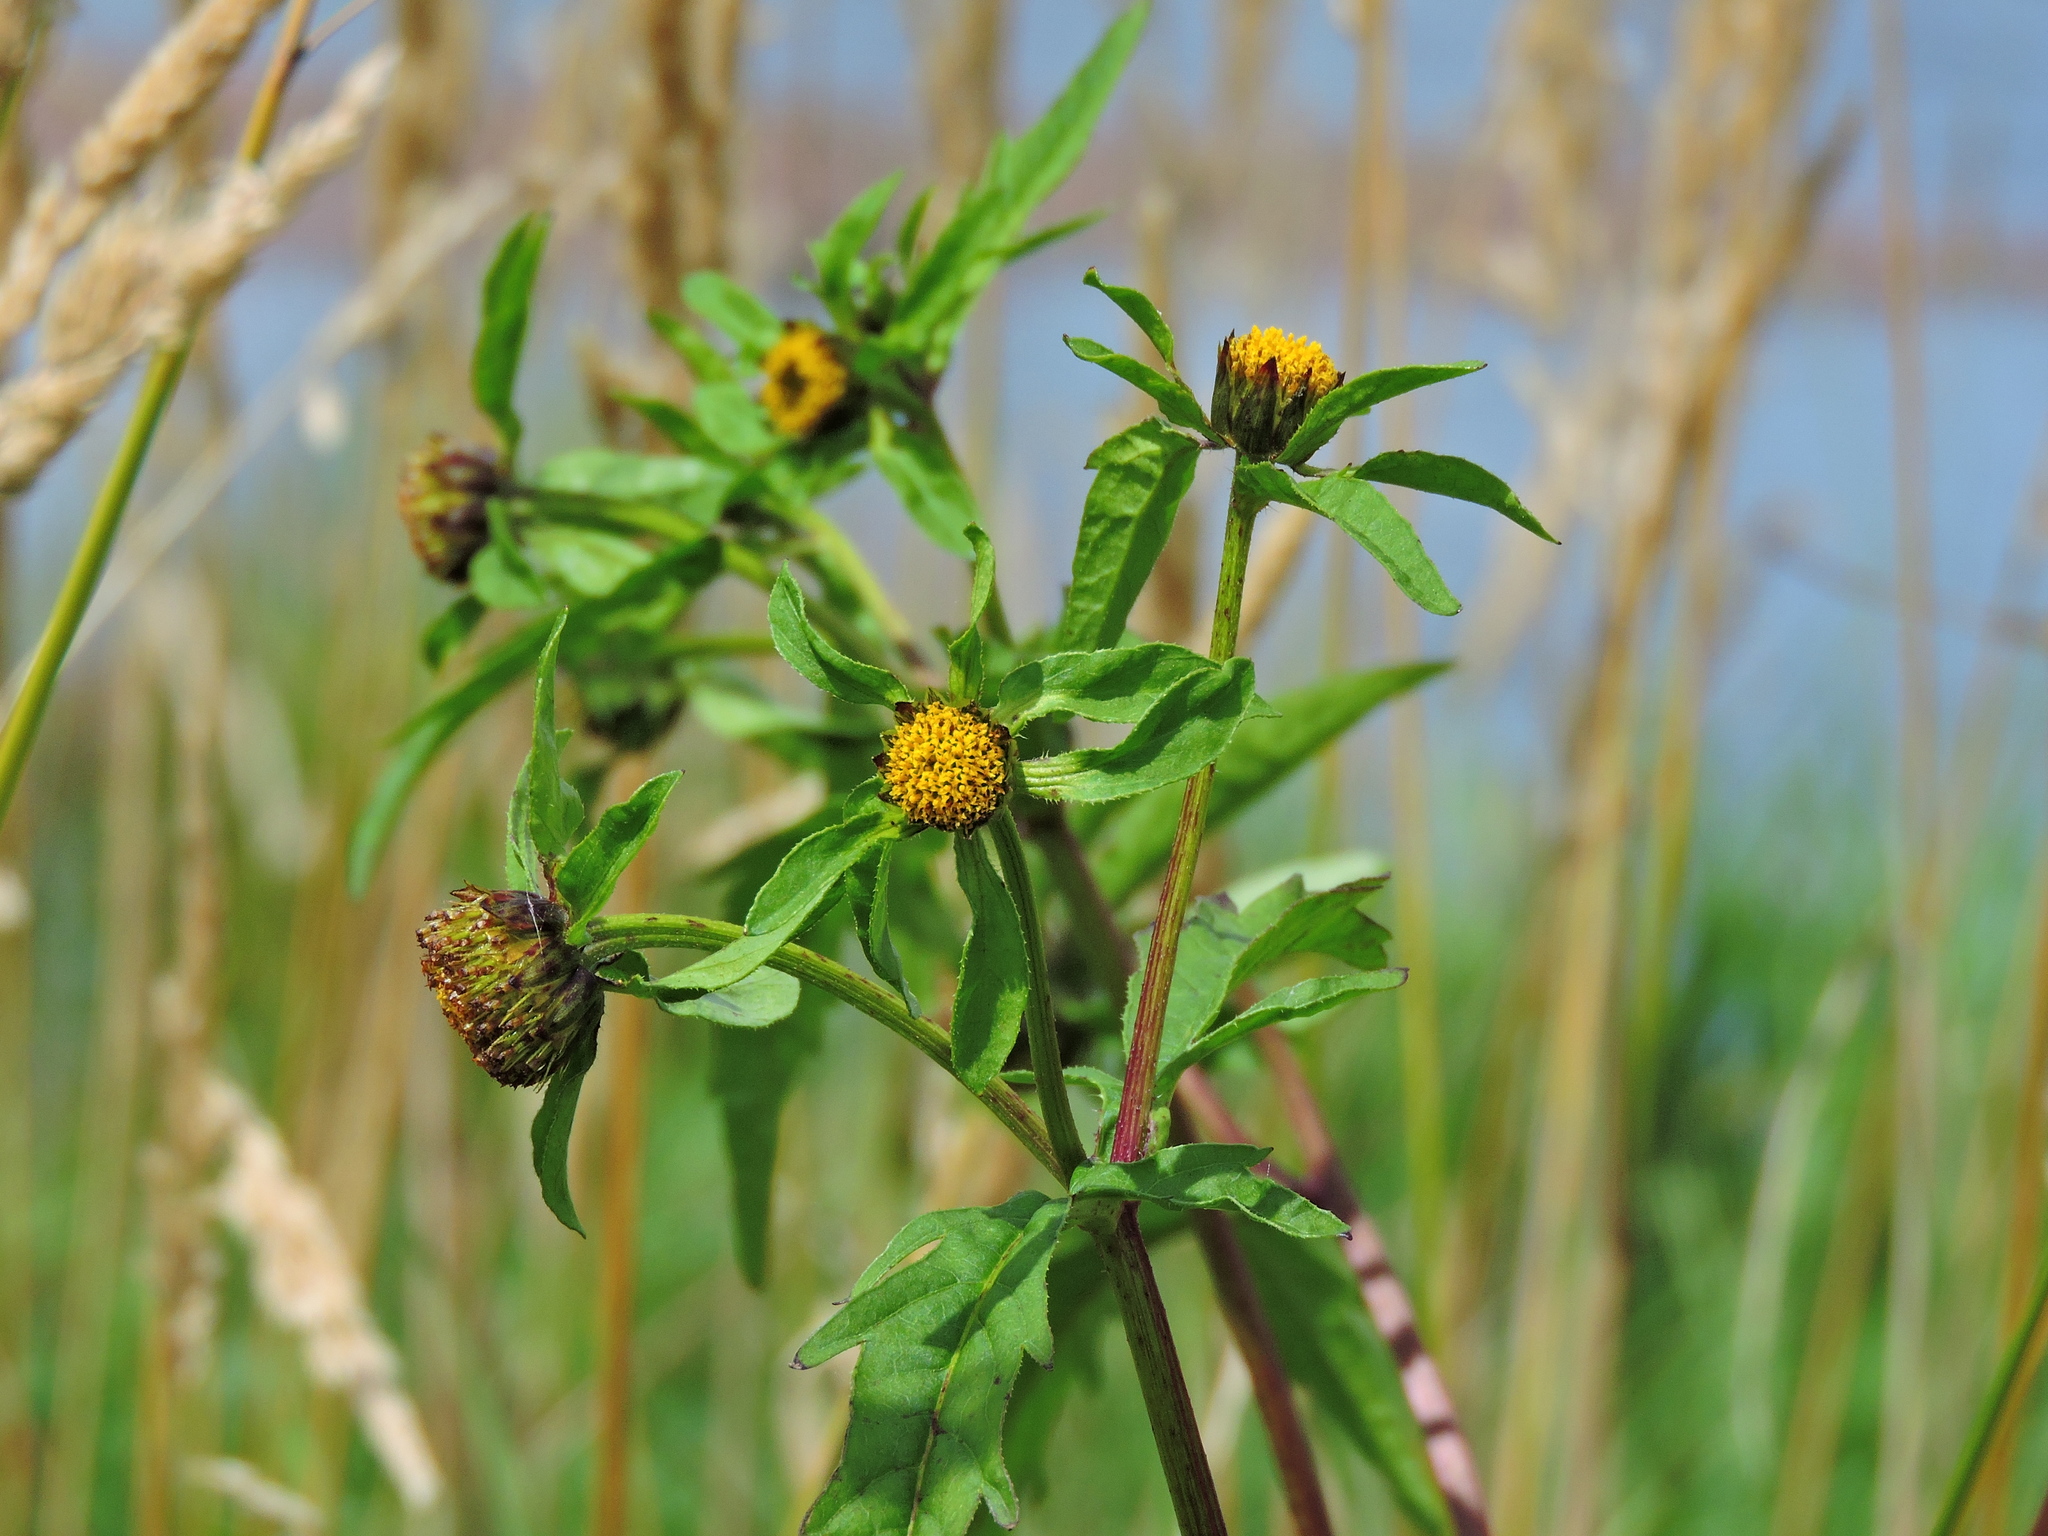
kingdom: Plantae
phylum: Tracheophyta
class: Magnoliopsida
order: Asterales
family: Asteraceae
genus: Bidens
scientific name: Bidens tripartita
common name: Trifid bur-marigold
